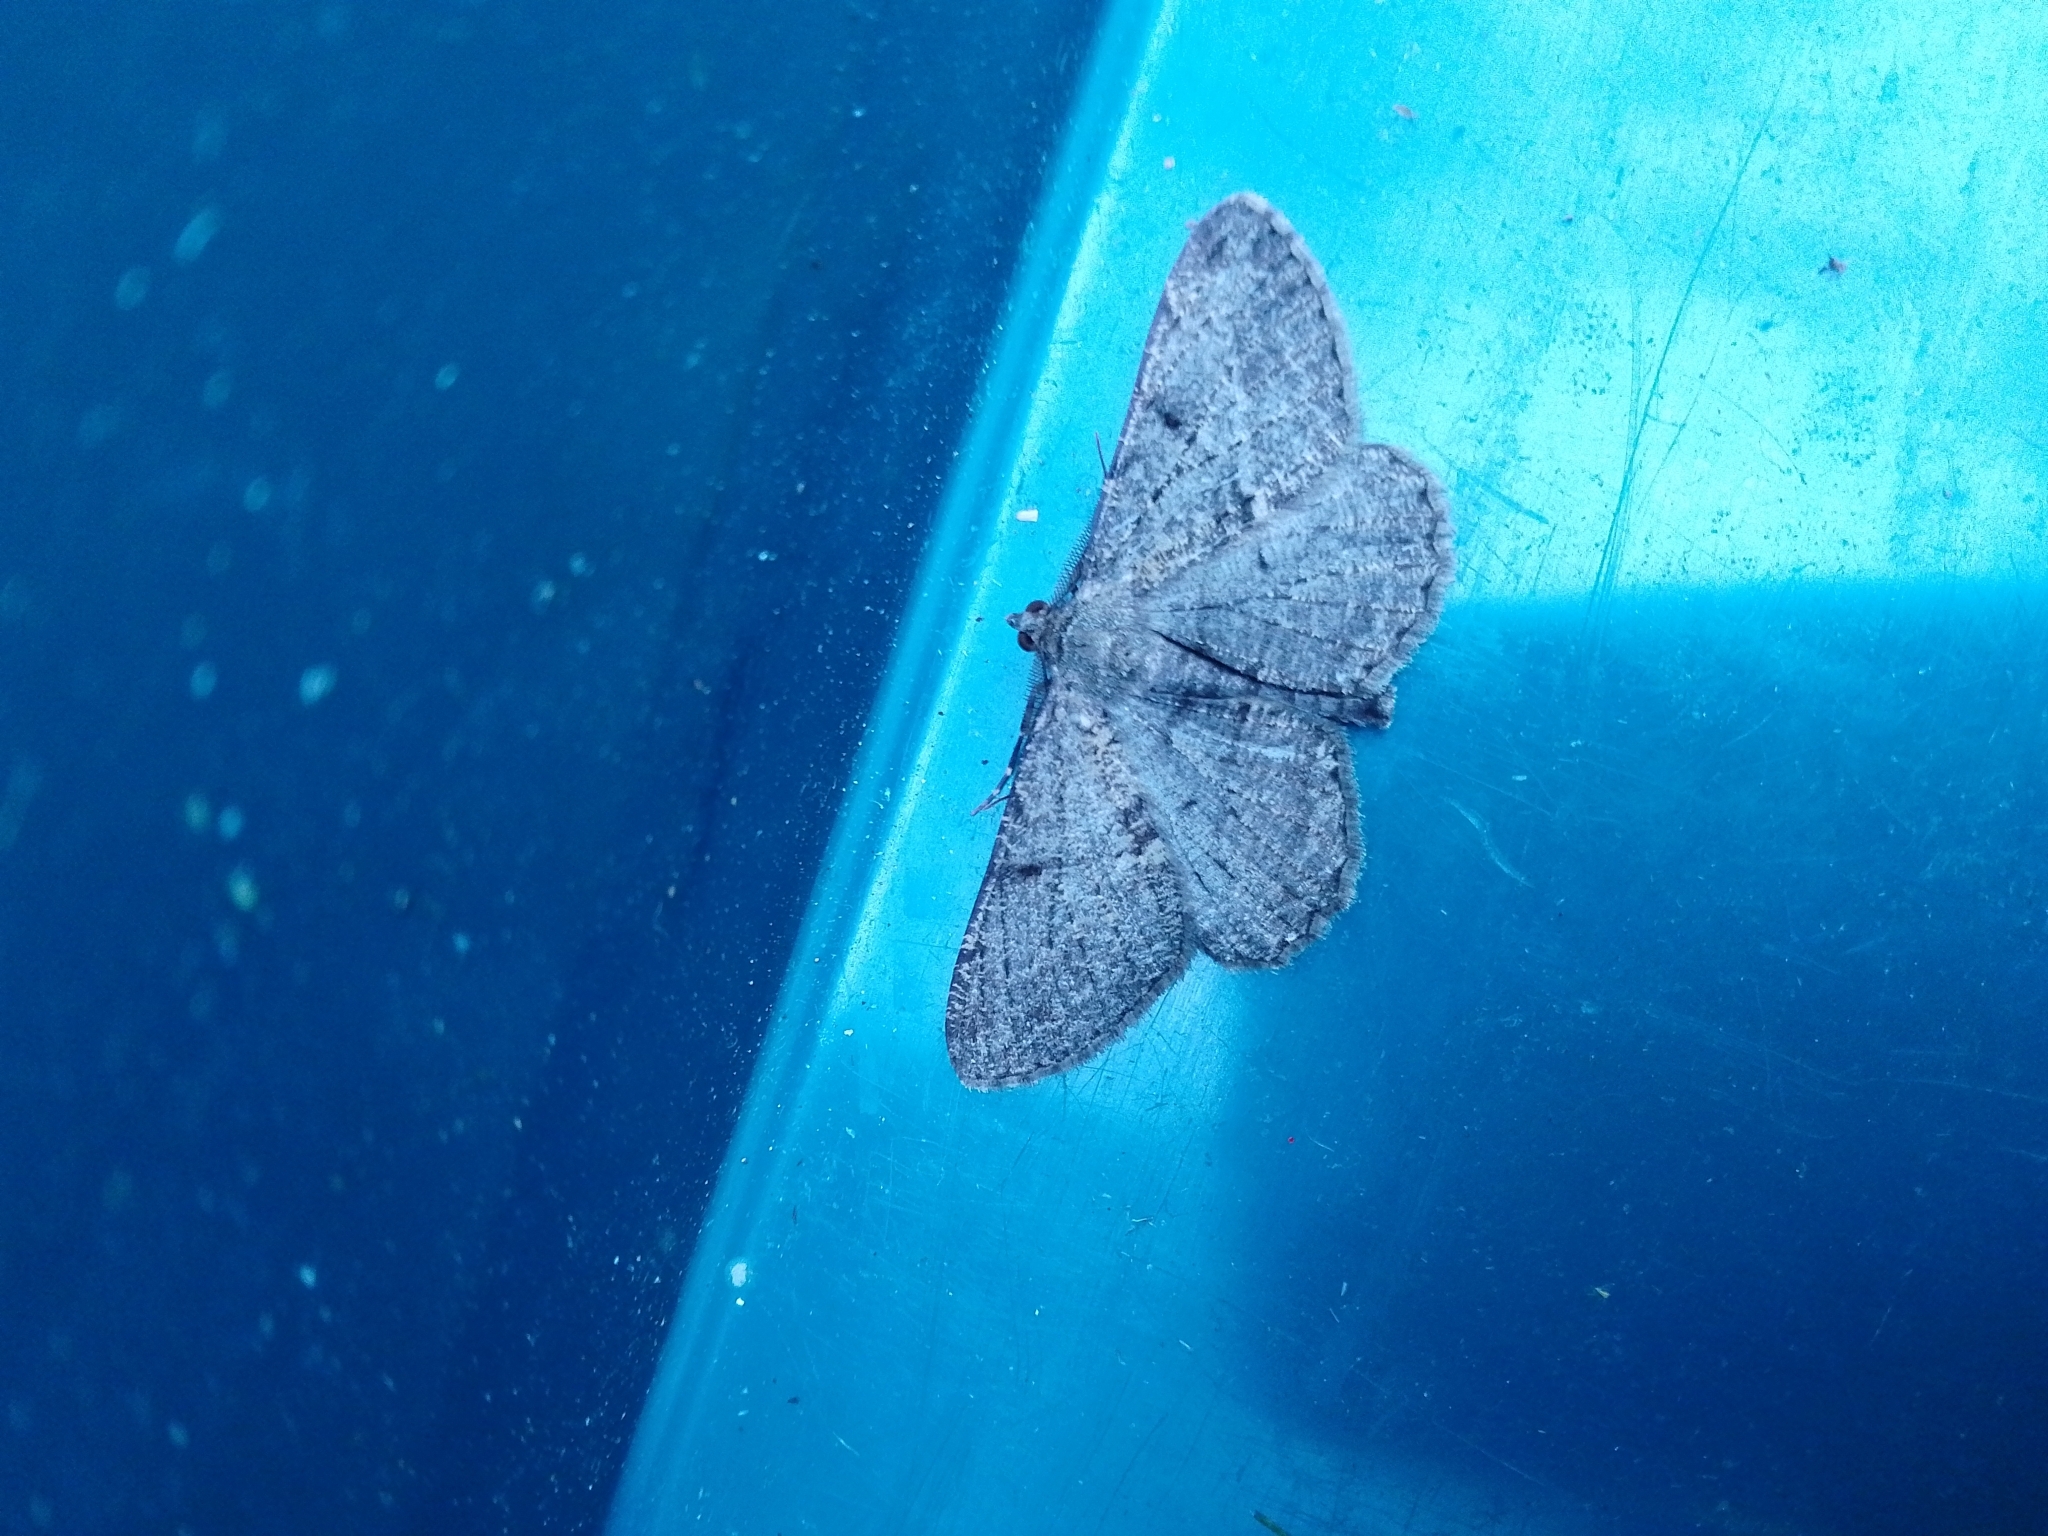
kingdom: Animalia
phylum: Arthropoda
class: Insecta
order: Lepidoptera
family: Geometridae
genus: Peribatodes
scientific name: Peribatodes rhomboidaria
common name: Willow beauty
